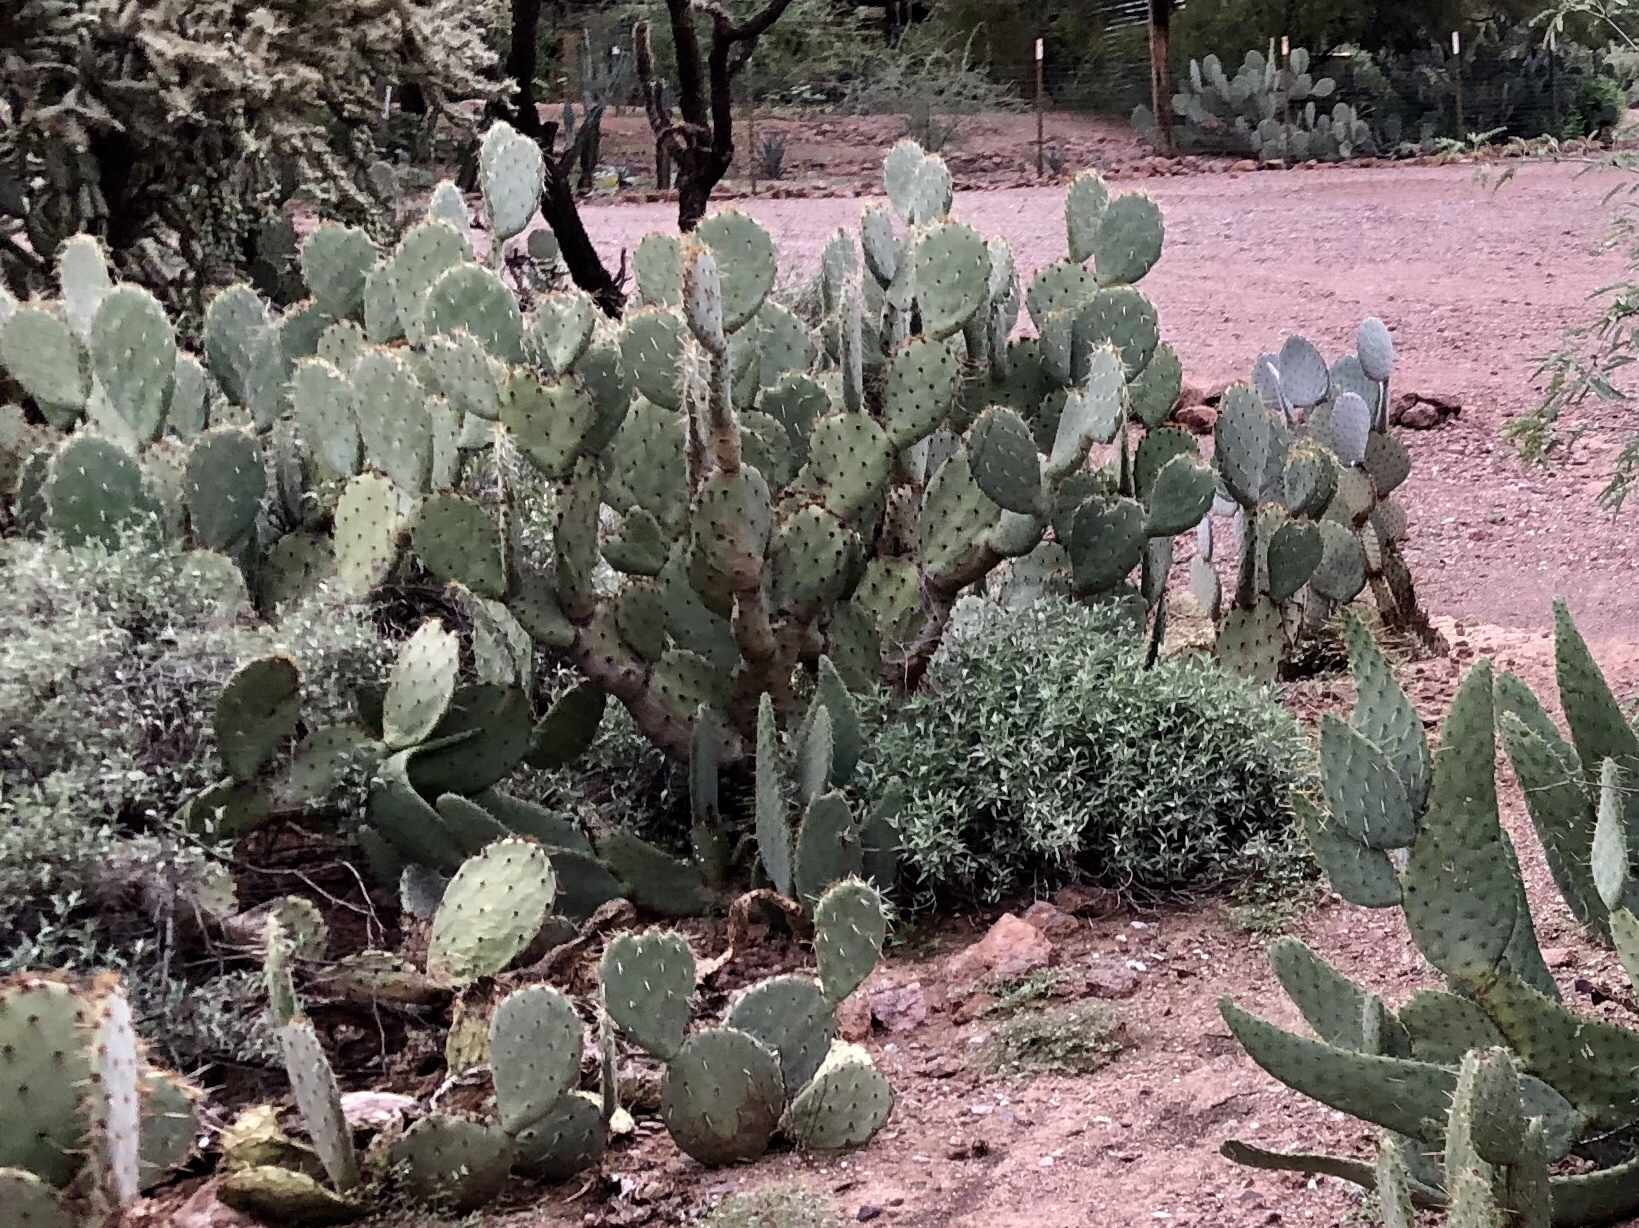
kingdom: Plantae
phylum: Tracheophyta
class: Magnoliopsida
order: Caryophyllales
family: Cactaceae
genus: Opuntia
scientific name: Opuntia engelmannii
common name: Cactus-apple
